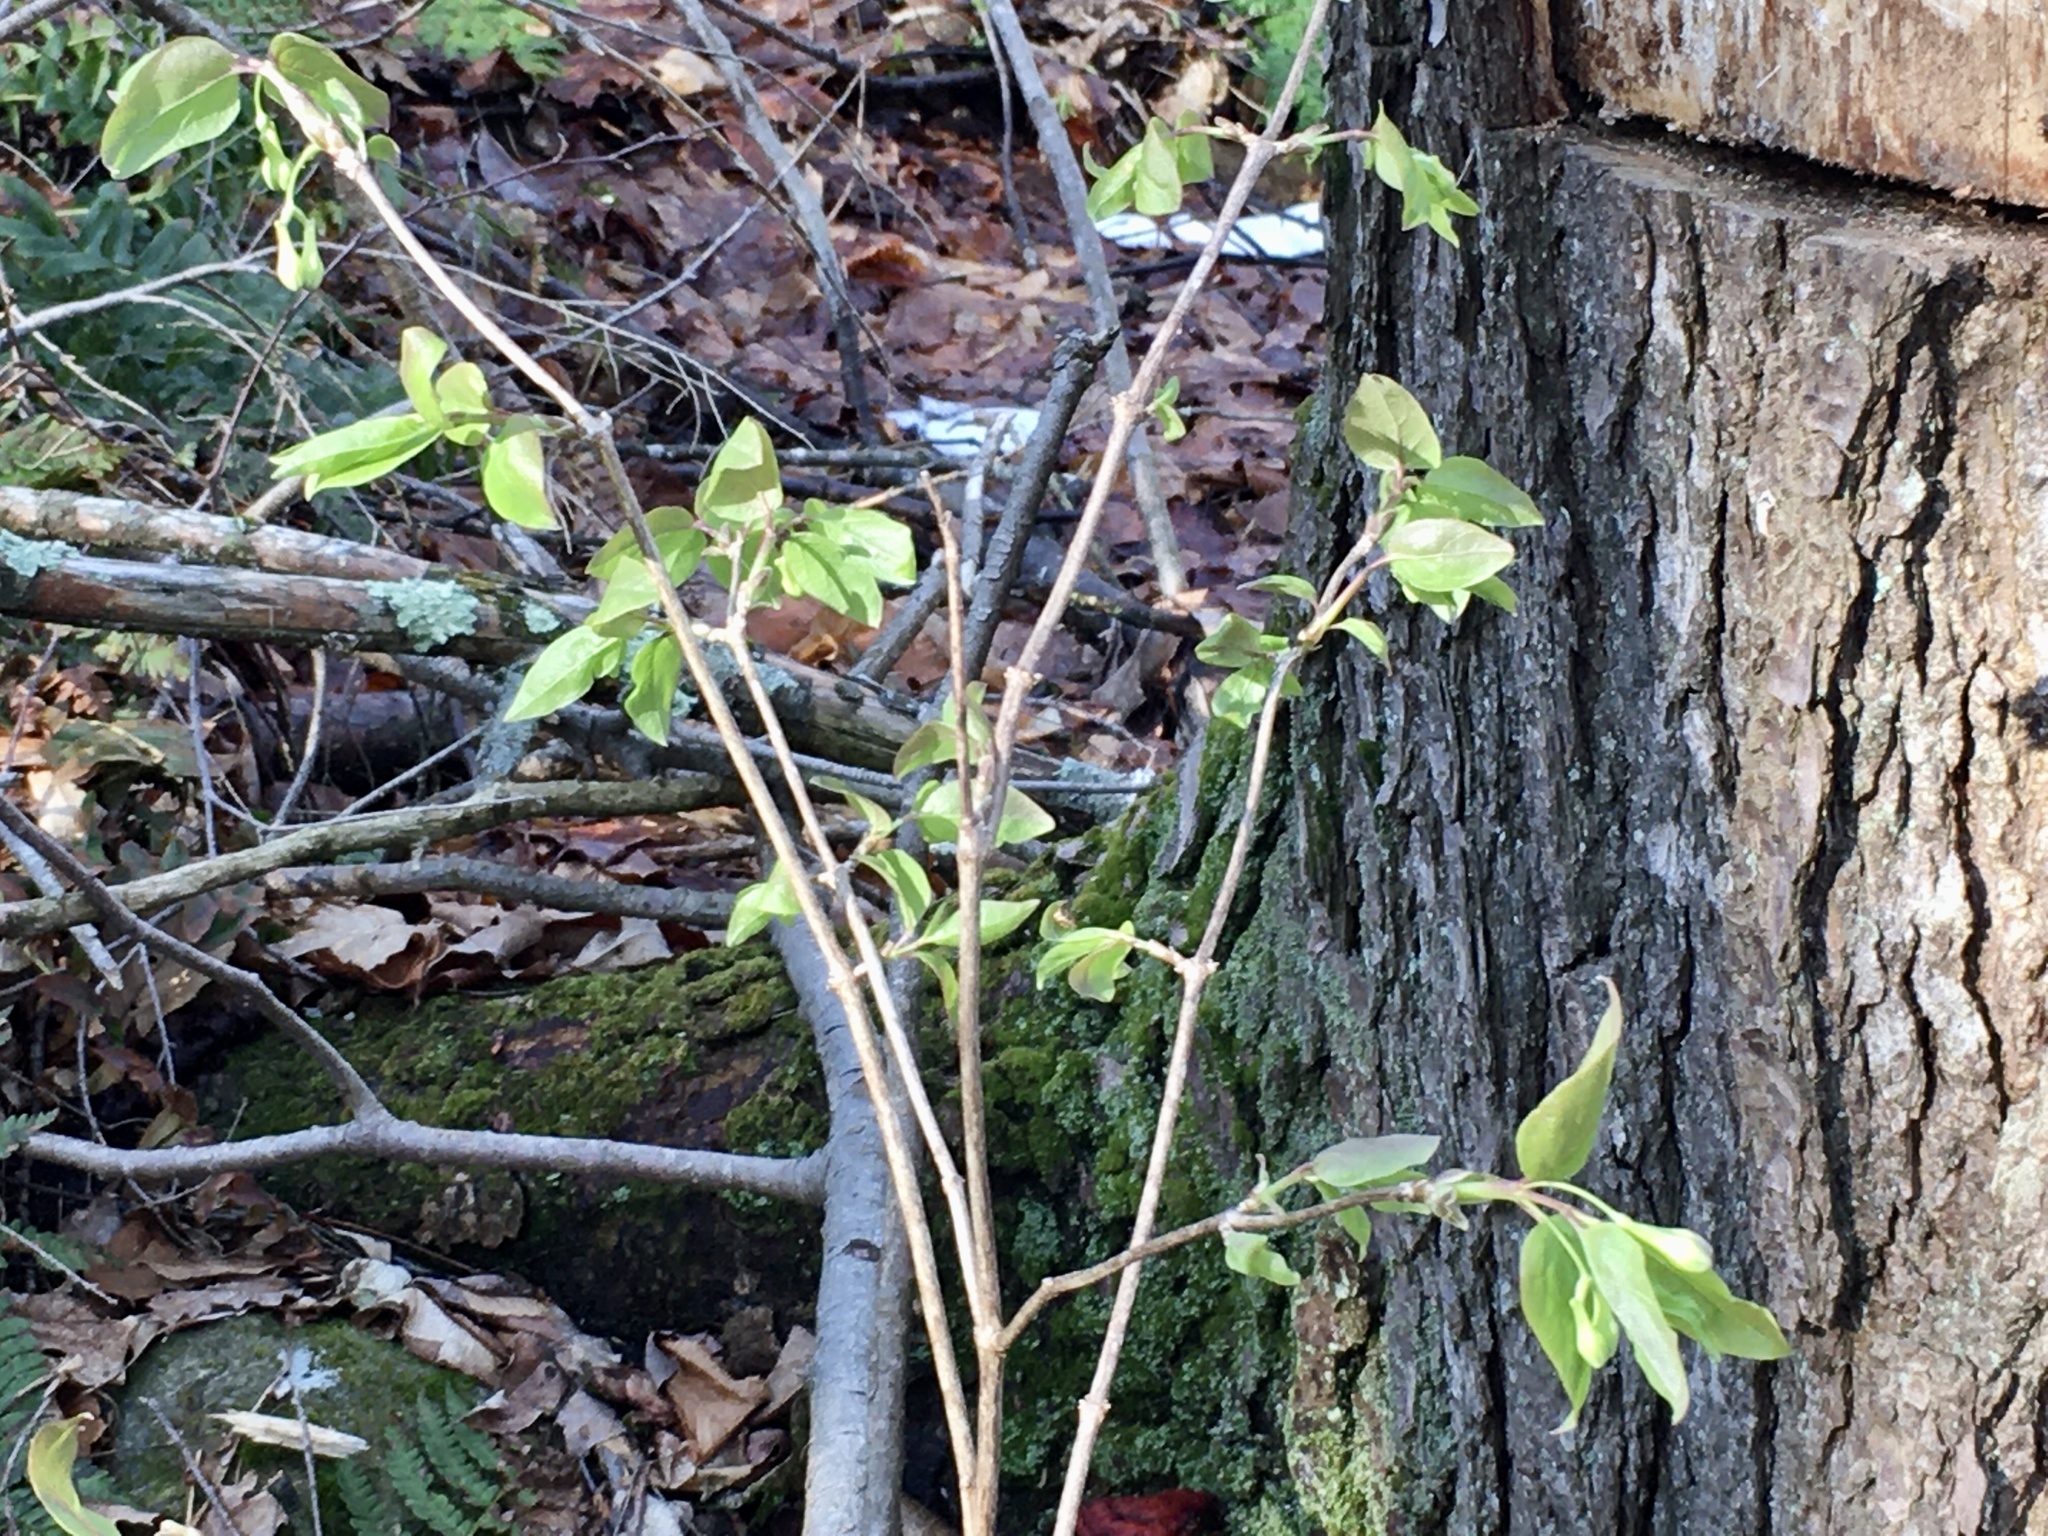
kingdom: Plantae
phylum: Tracheophyta
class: Magnoliopsida
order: Dipsacales
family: Caprifoliaceae
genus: Lonicera
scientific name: Lonicera canadensis
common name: American fly-honeysuckle
